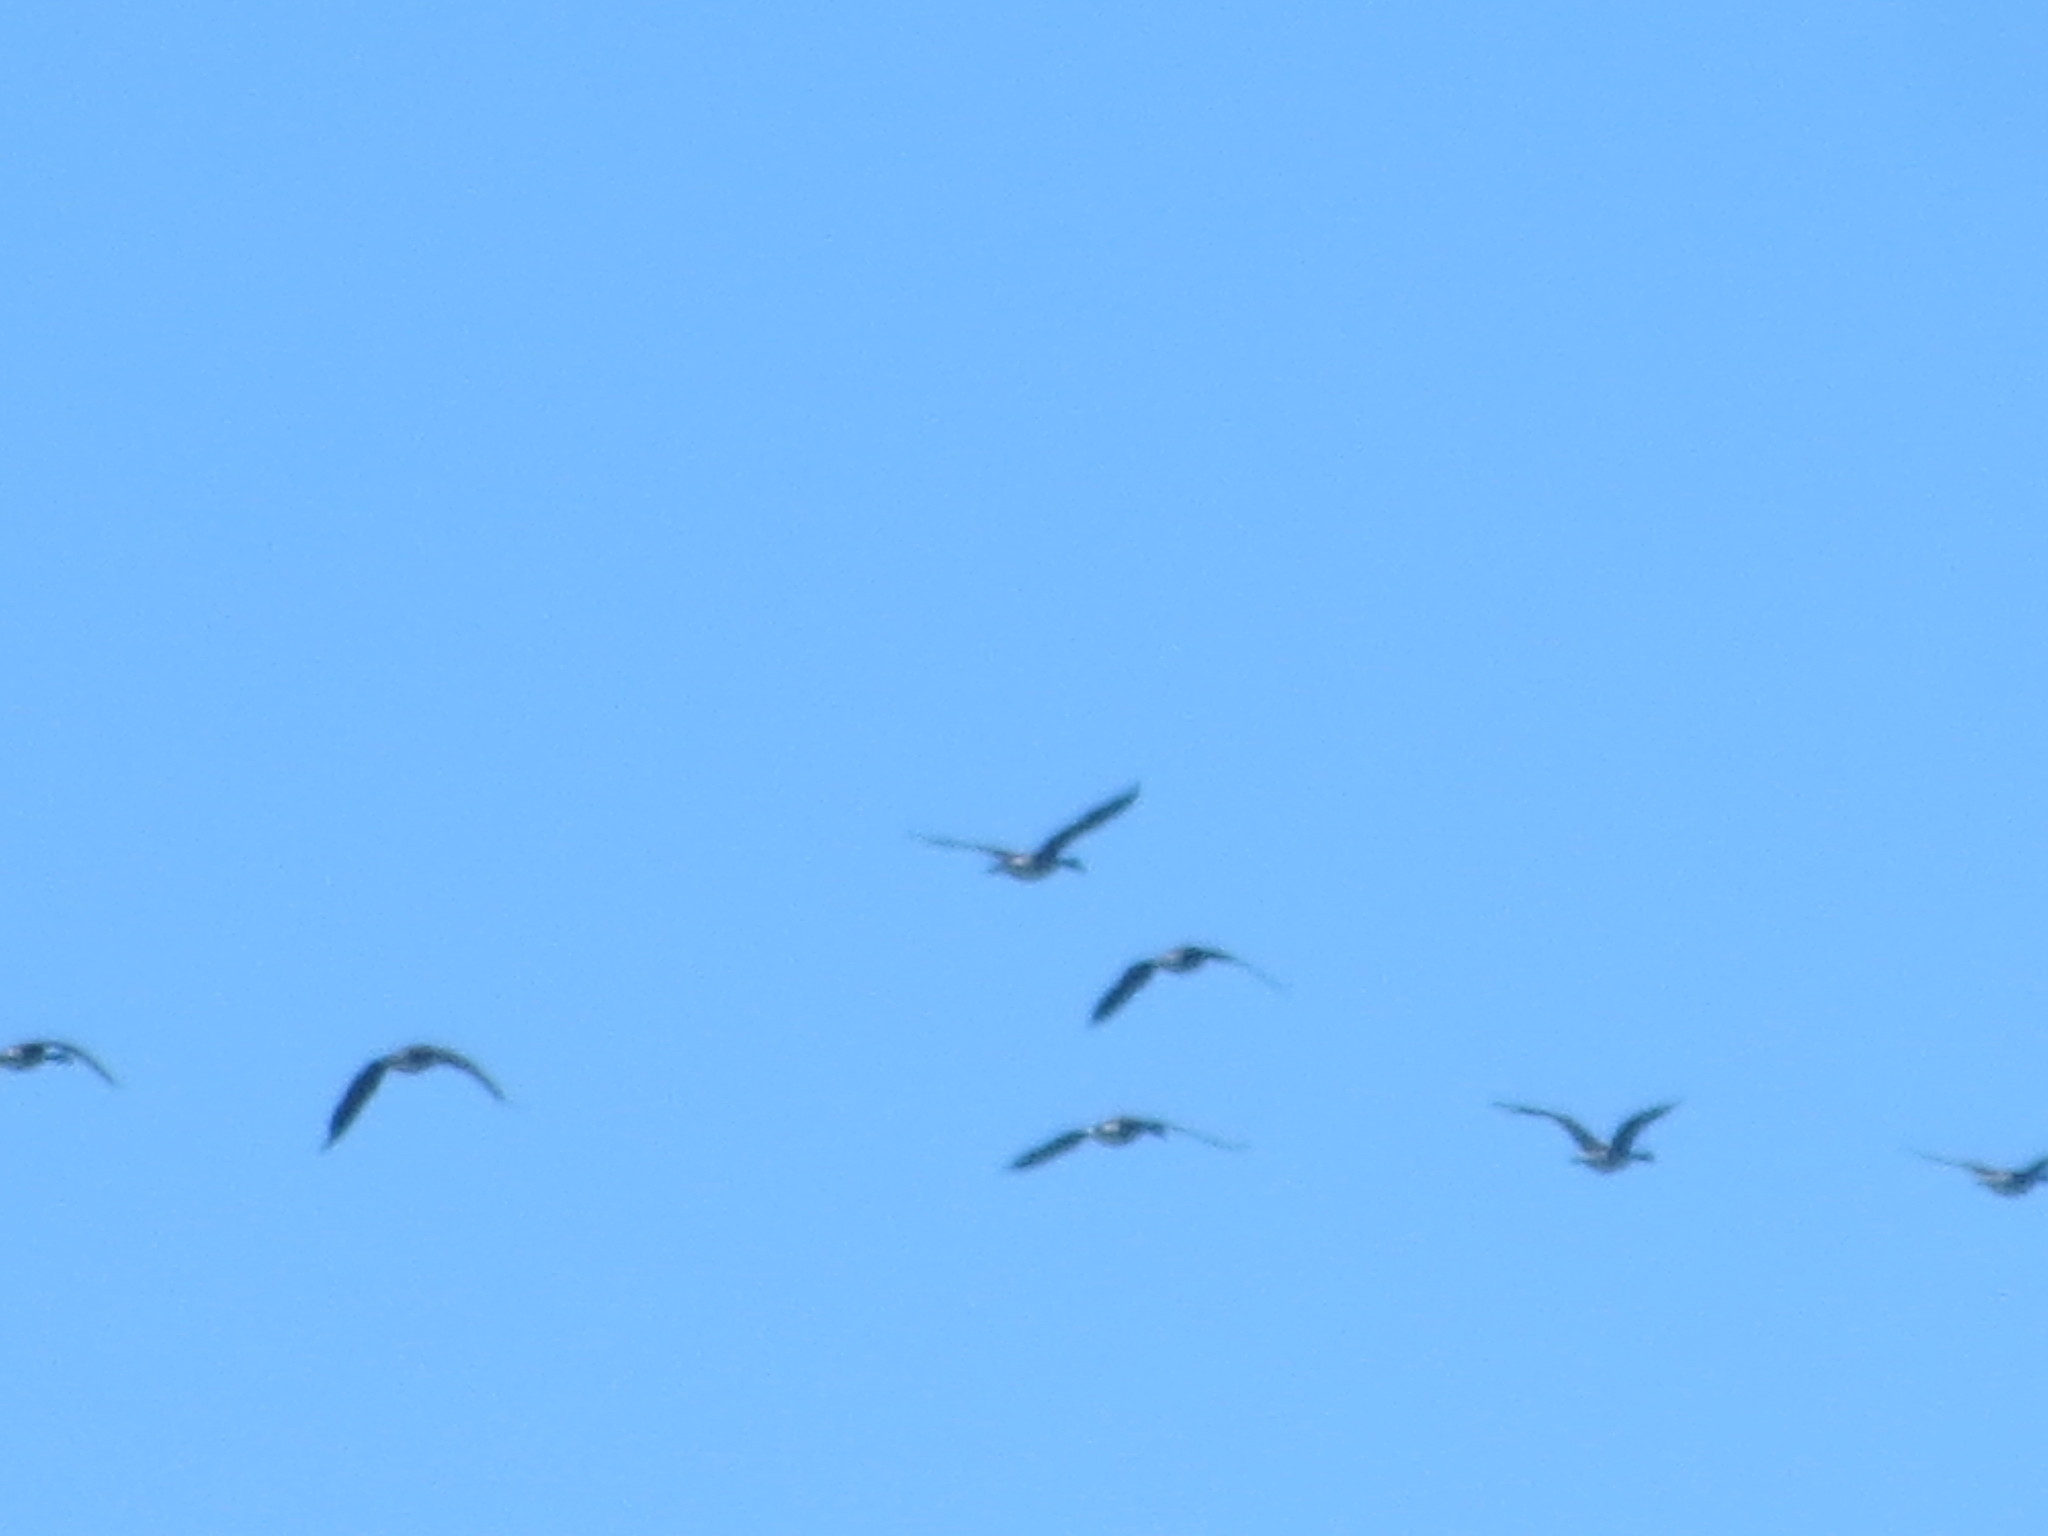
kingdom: Animalia
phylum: Chordata
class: Aves
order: Anseriformes
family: Anatidae
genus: Branta
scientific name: Branta canadensis
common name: Canada goose
